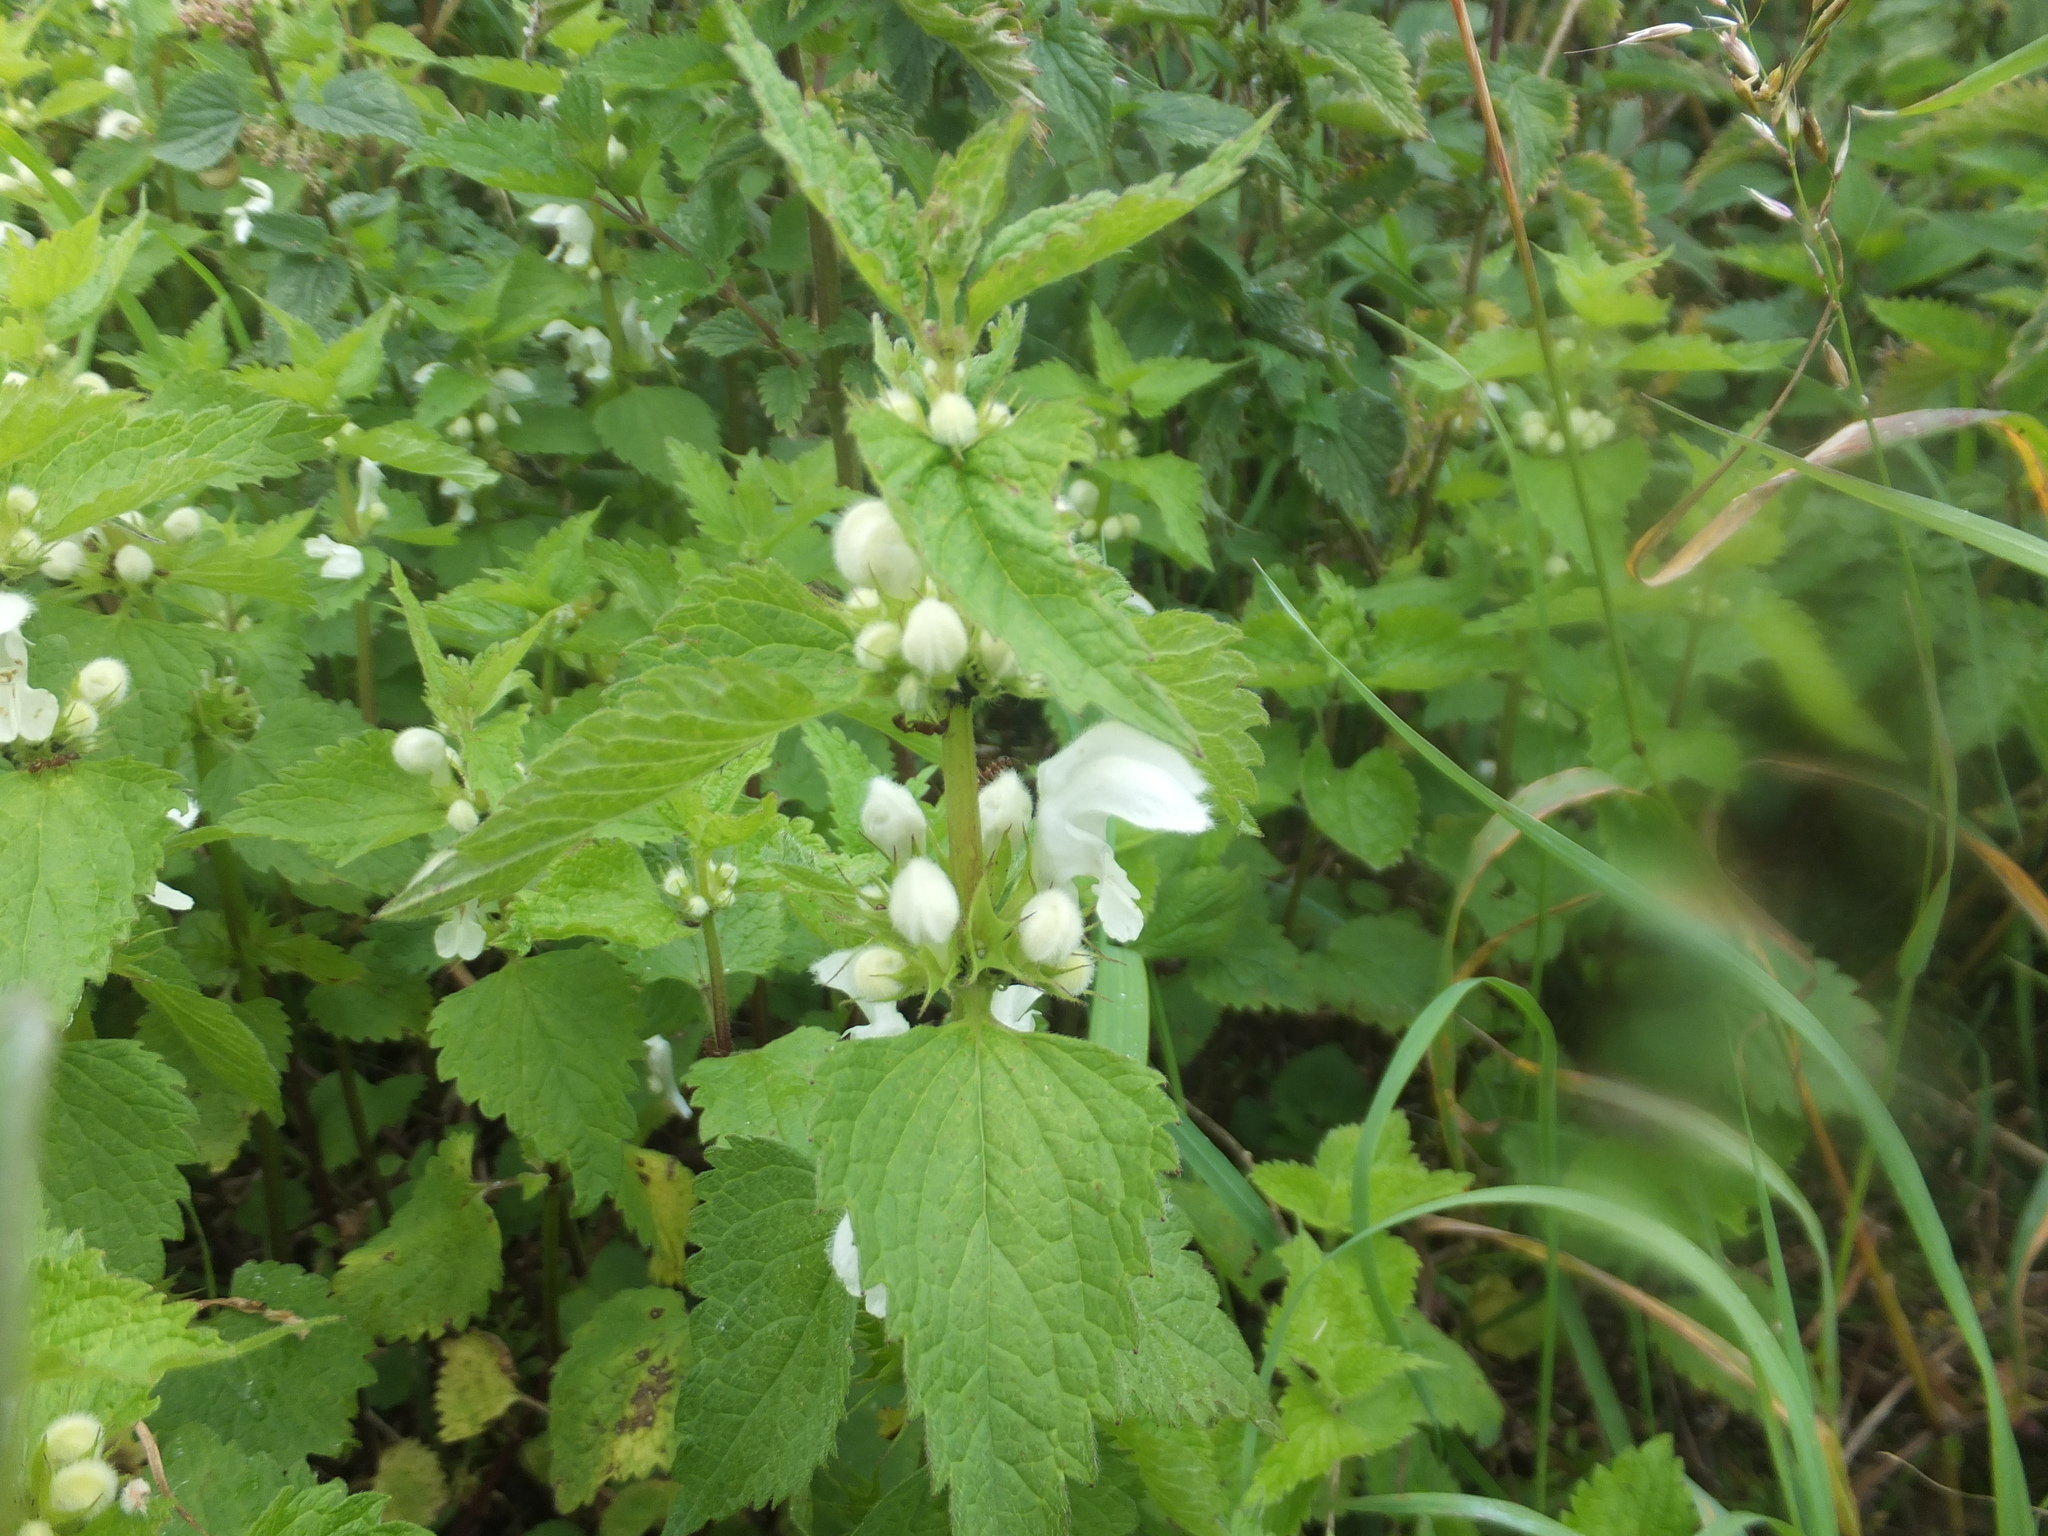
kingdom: Plantae
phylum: Tracheophyta
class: Magnoliopsida
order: Lamiales
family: Lamiaceae
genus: Lamium
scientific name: Lamium album
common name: White dead-nettle
